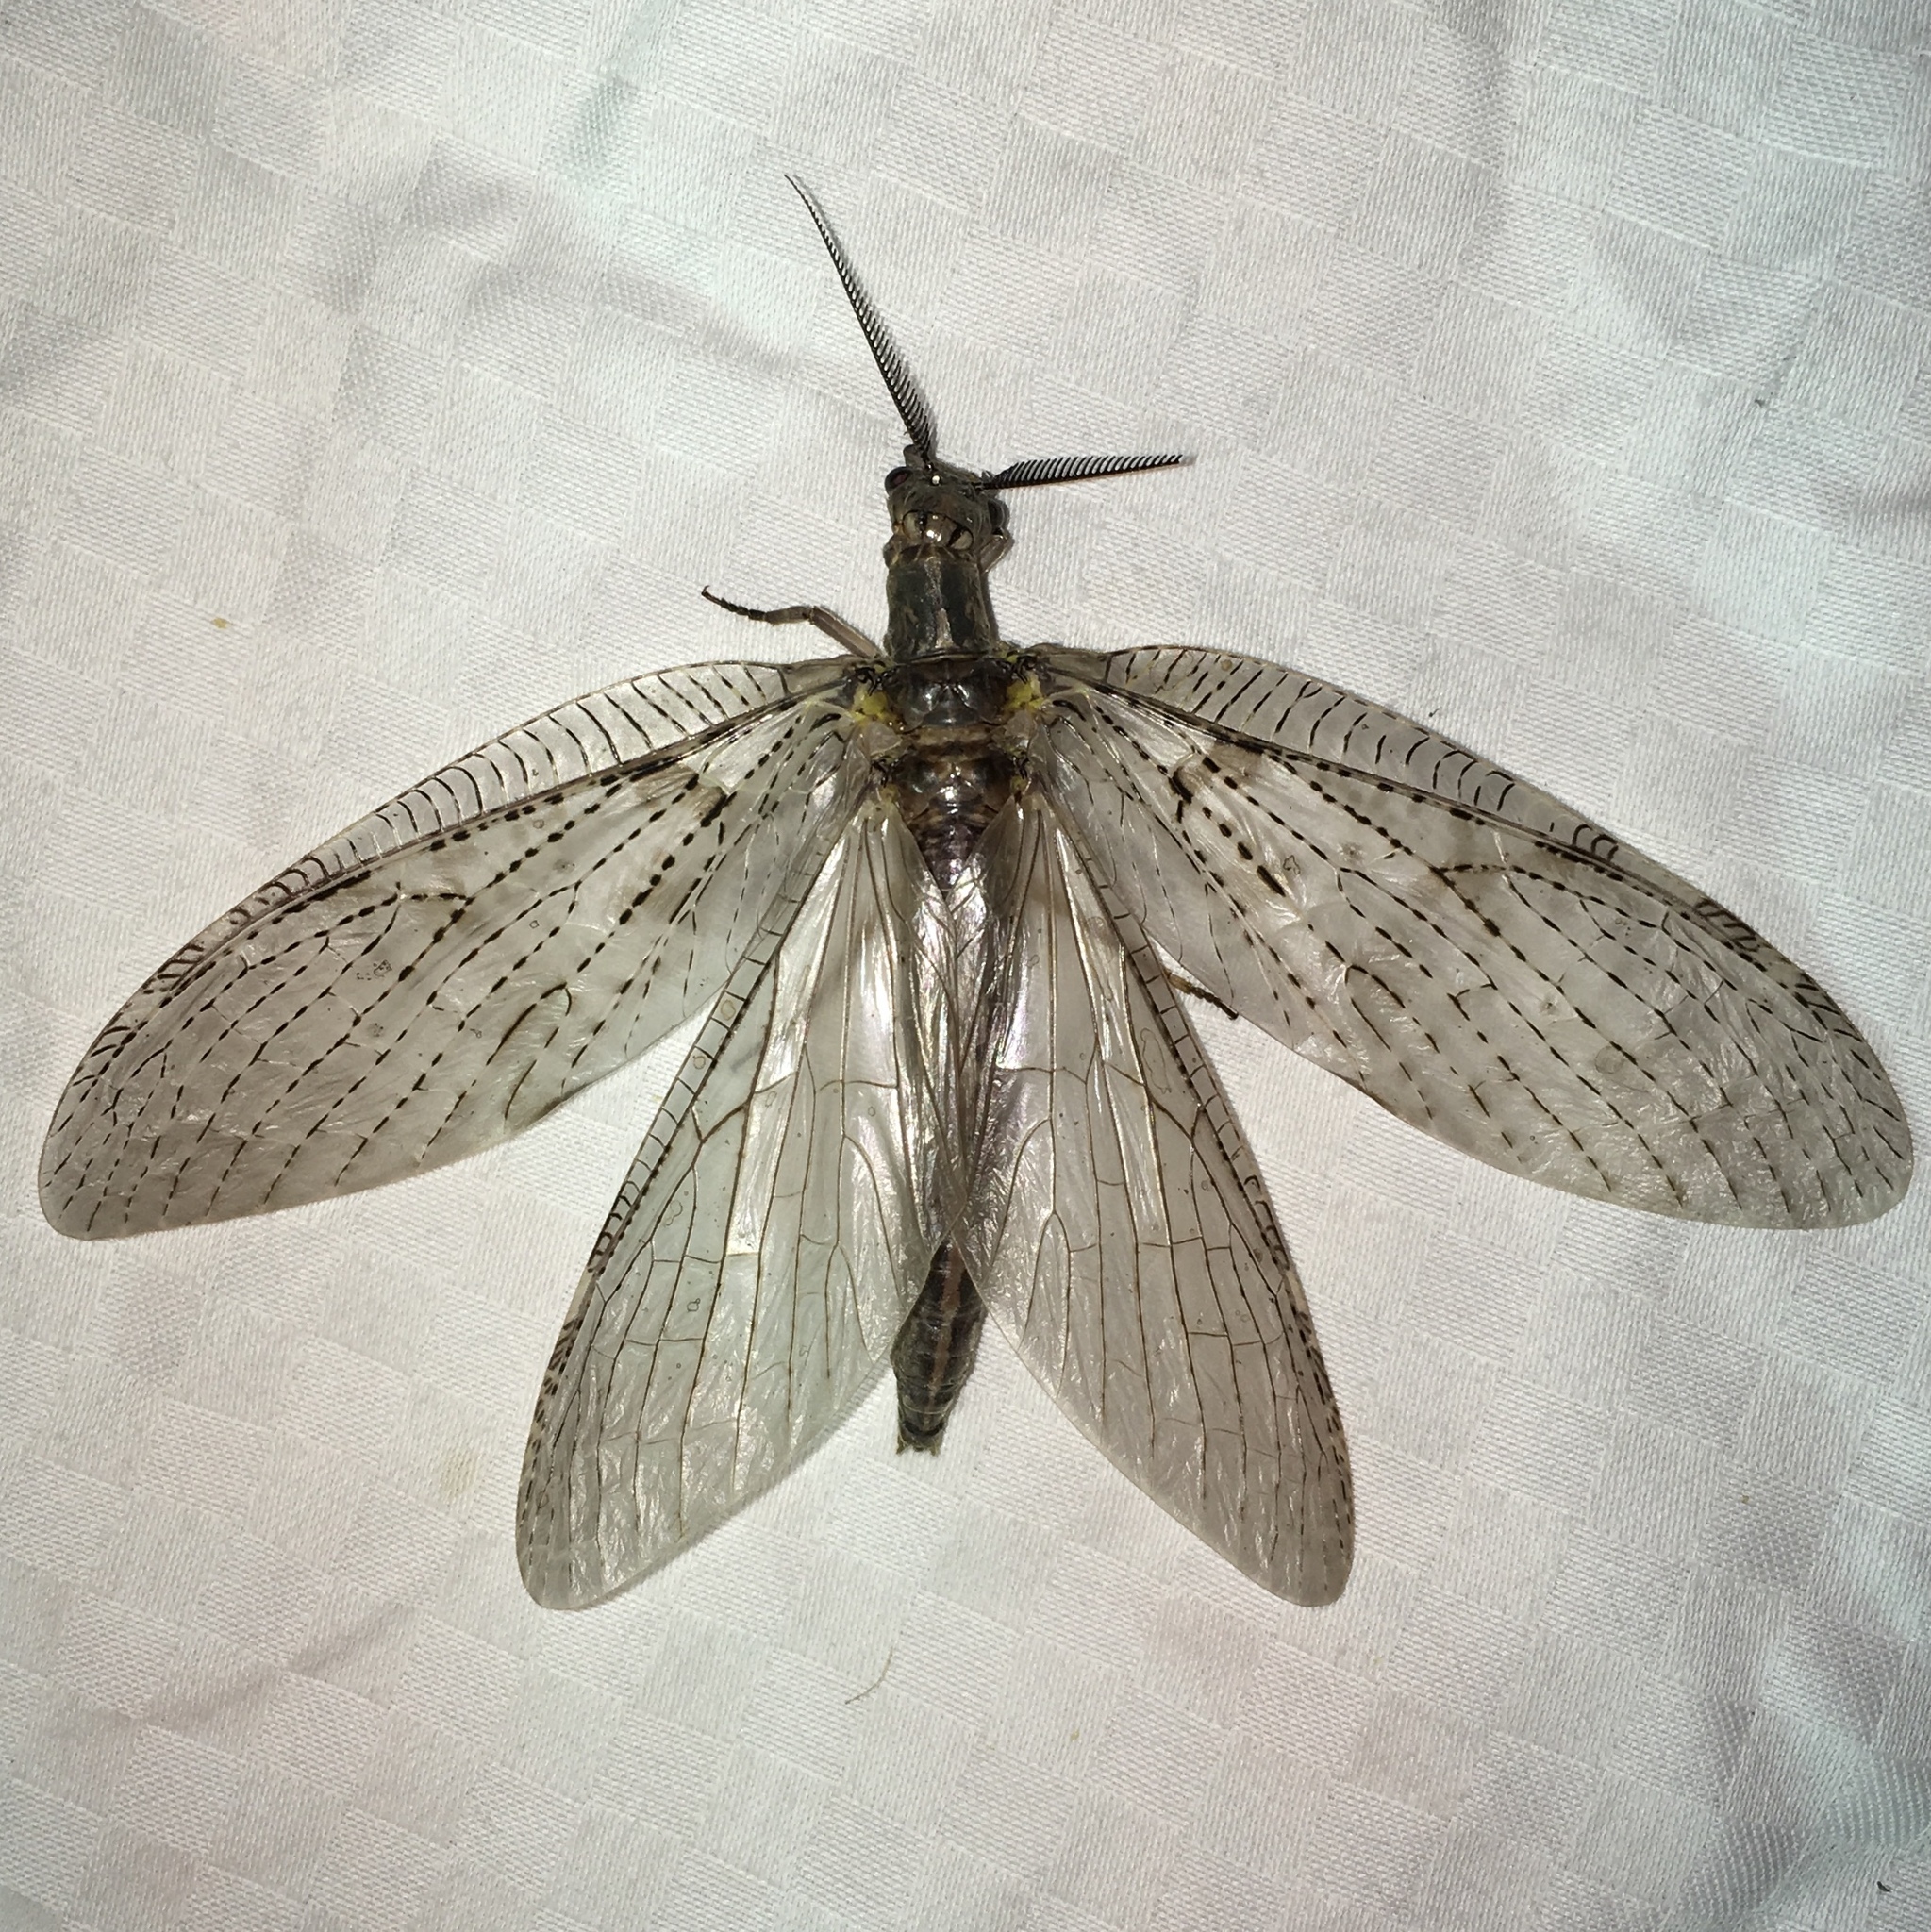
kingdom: Animalia
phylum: Arthropoda
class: Insecta
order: Megaloptera
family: Corydalidae
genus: Chauliodes
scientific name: Chauliodes pectinicornis
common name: Summer fishfly
